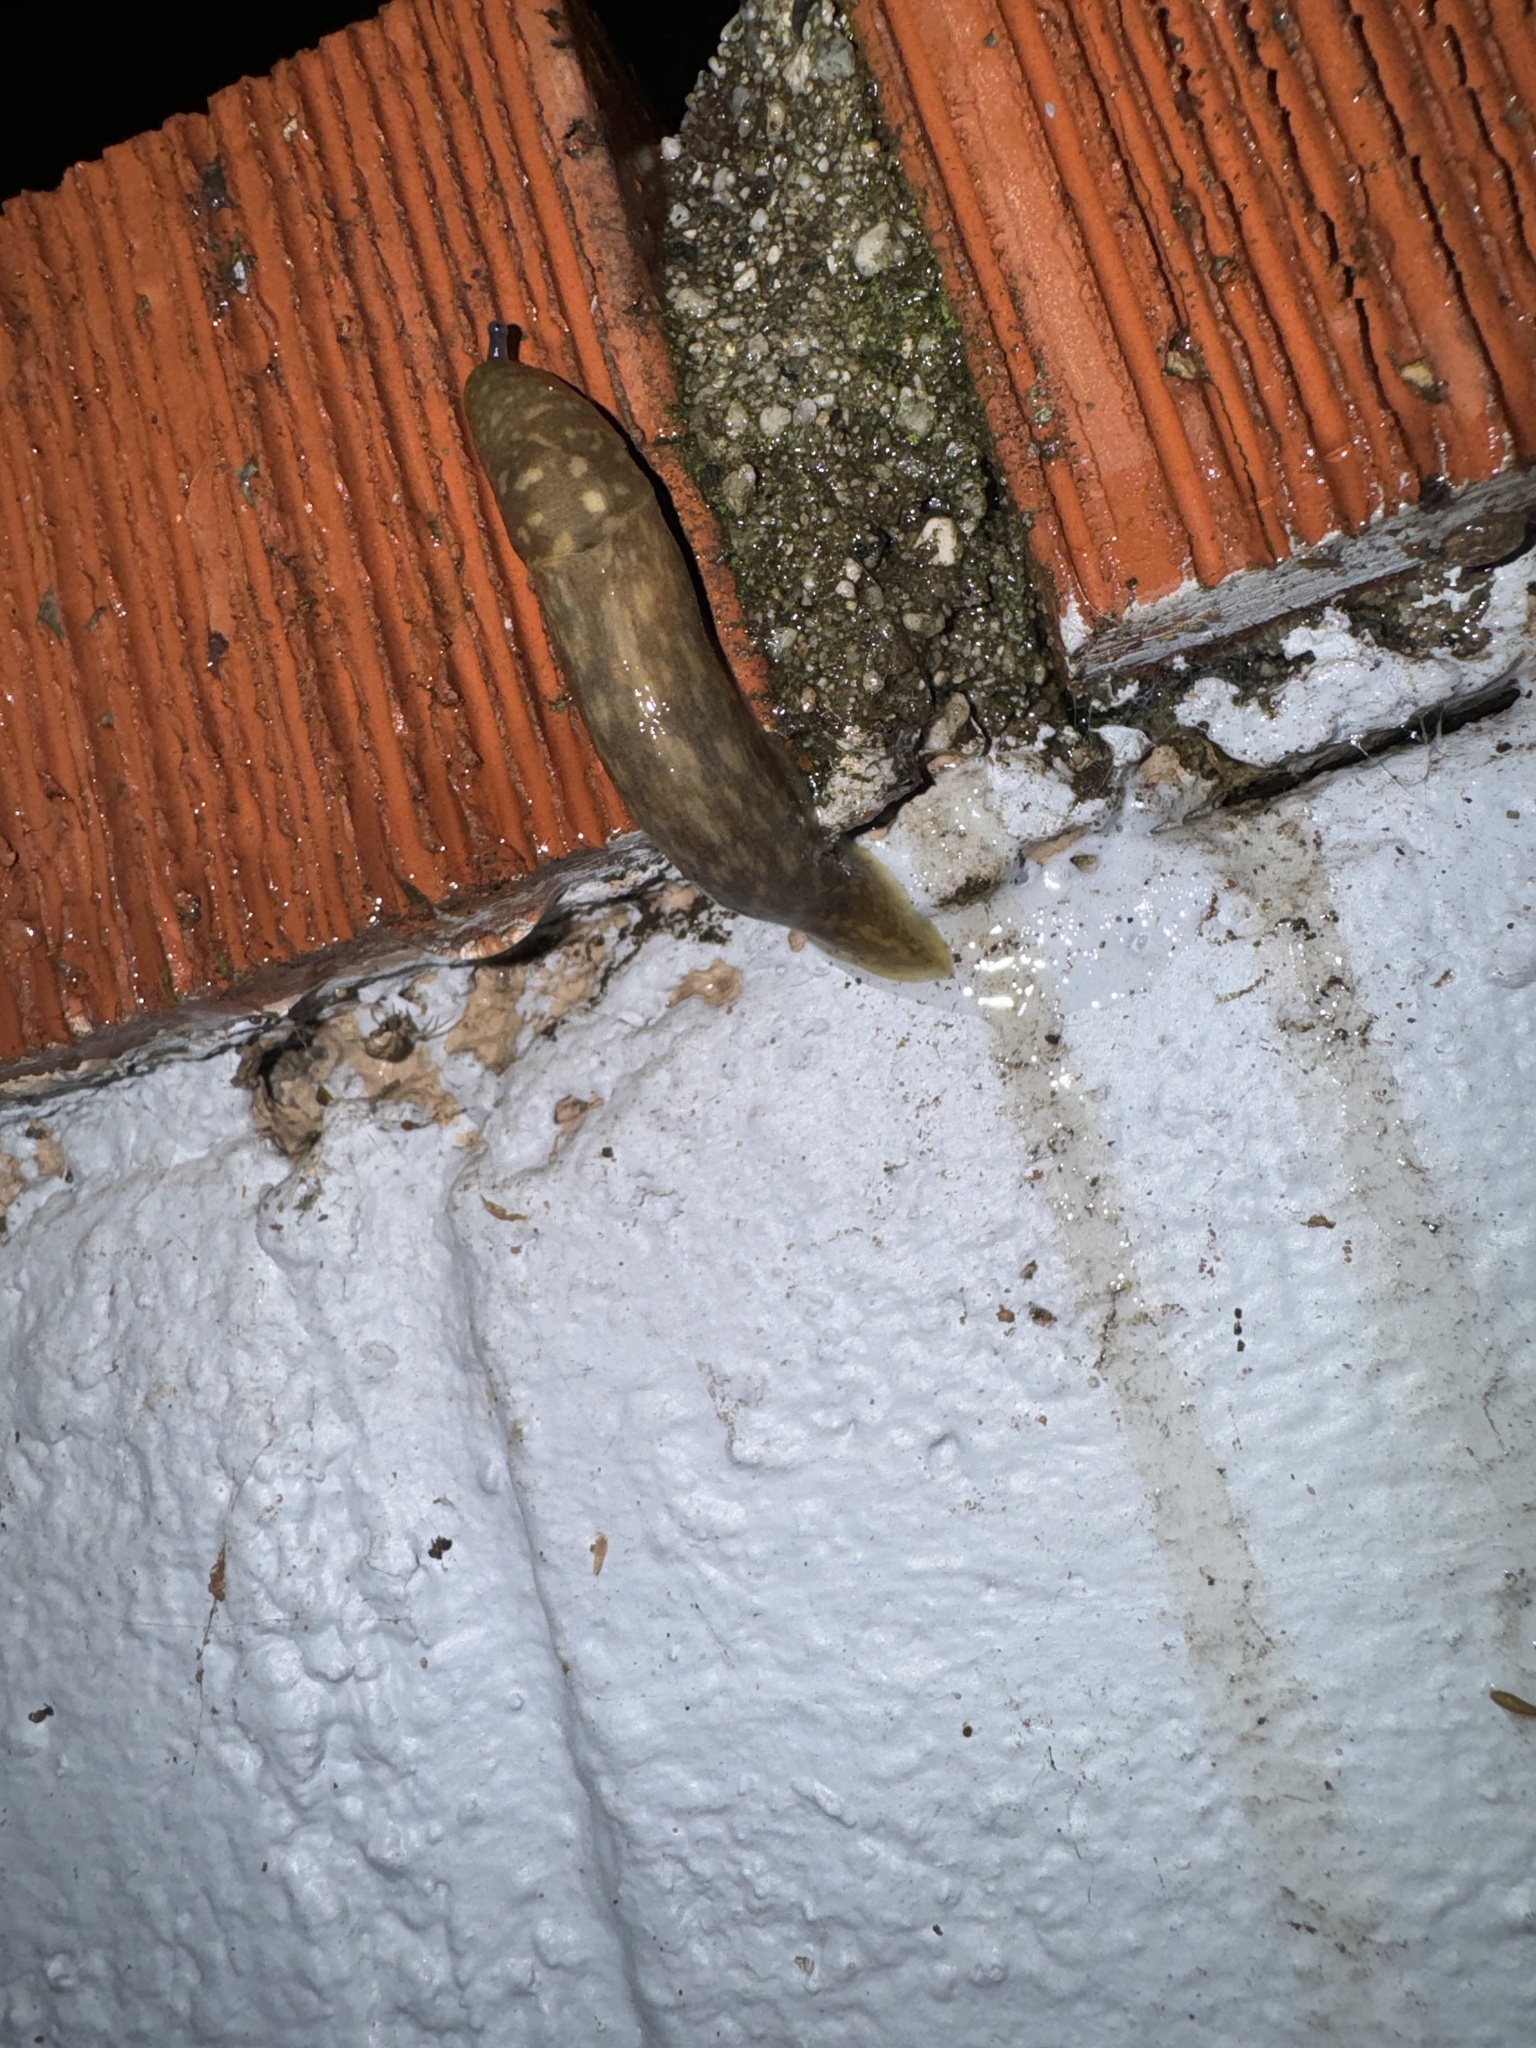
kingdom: Animalia
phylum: Mollusca
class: Gastropoda
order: Stylommatophora
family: Limacidae
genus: Limacus
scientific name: Limacus flavus
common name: Yellow gardenslug
